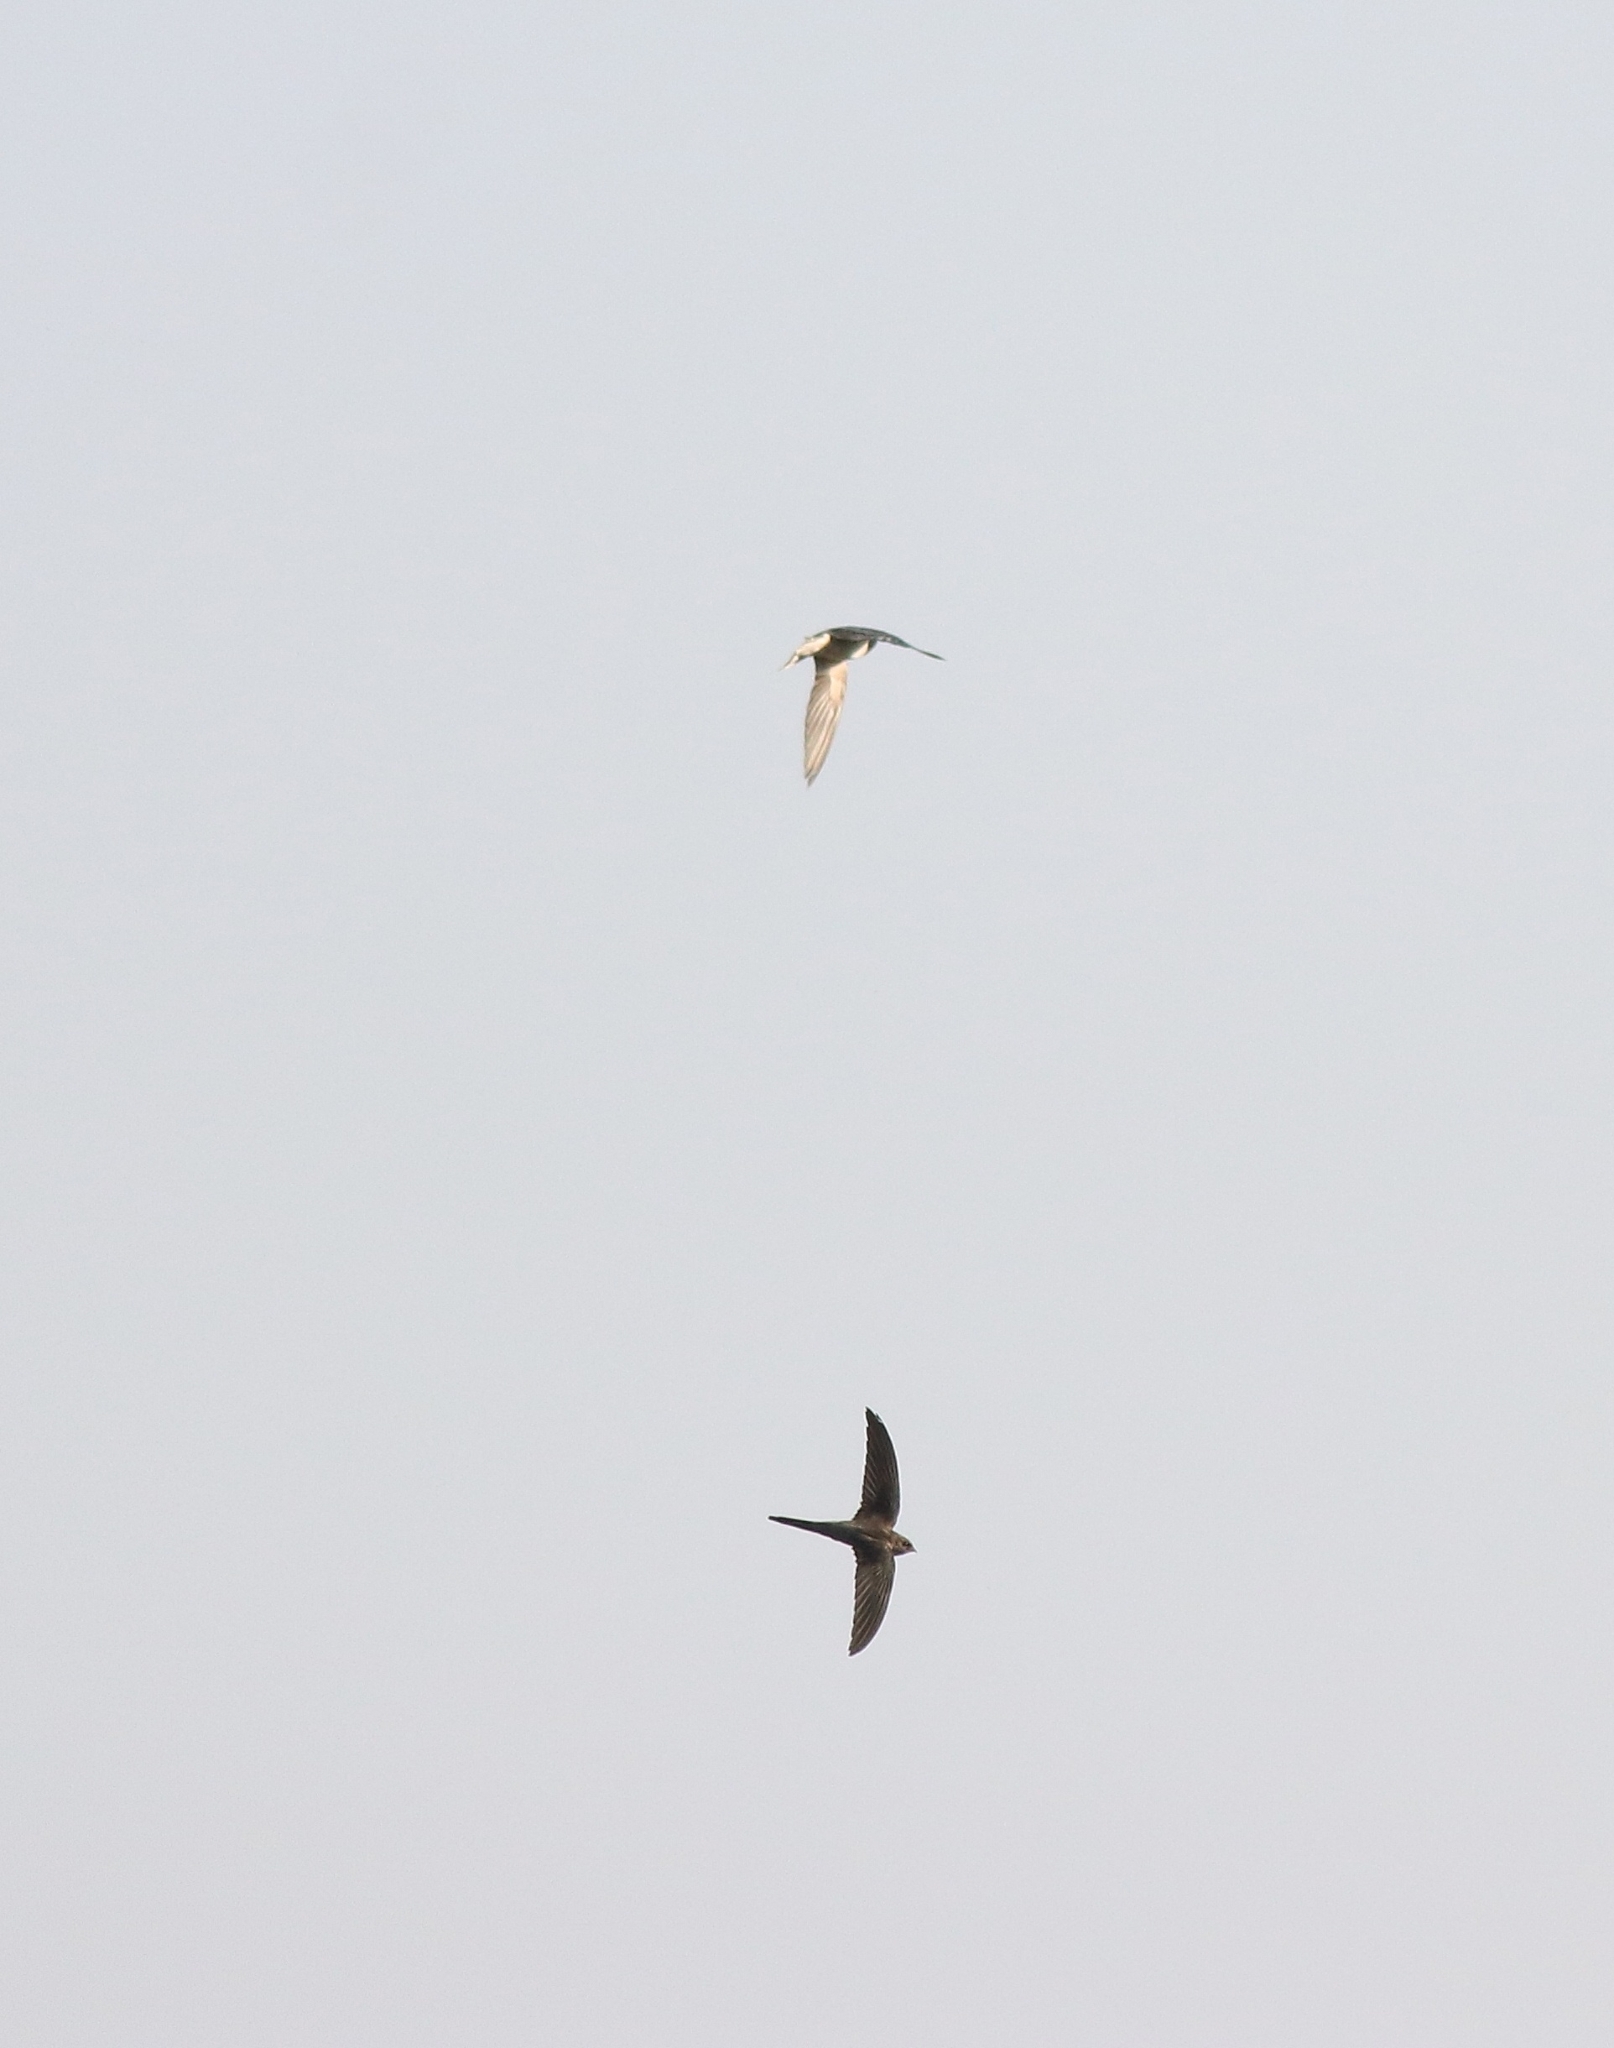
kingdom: Animalia
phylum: Chordata
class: Aves
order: Apodiformes
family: Apodidae
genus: Cypsiurus
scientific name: Cypsiurus balasiensis
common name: Asian palm swift
